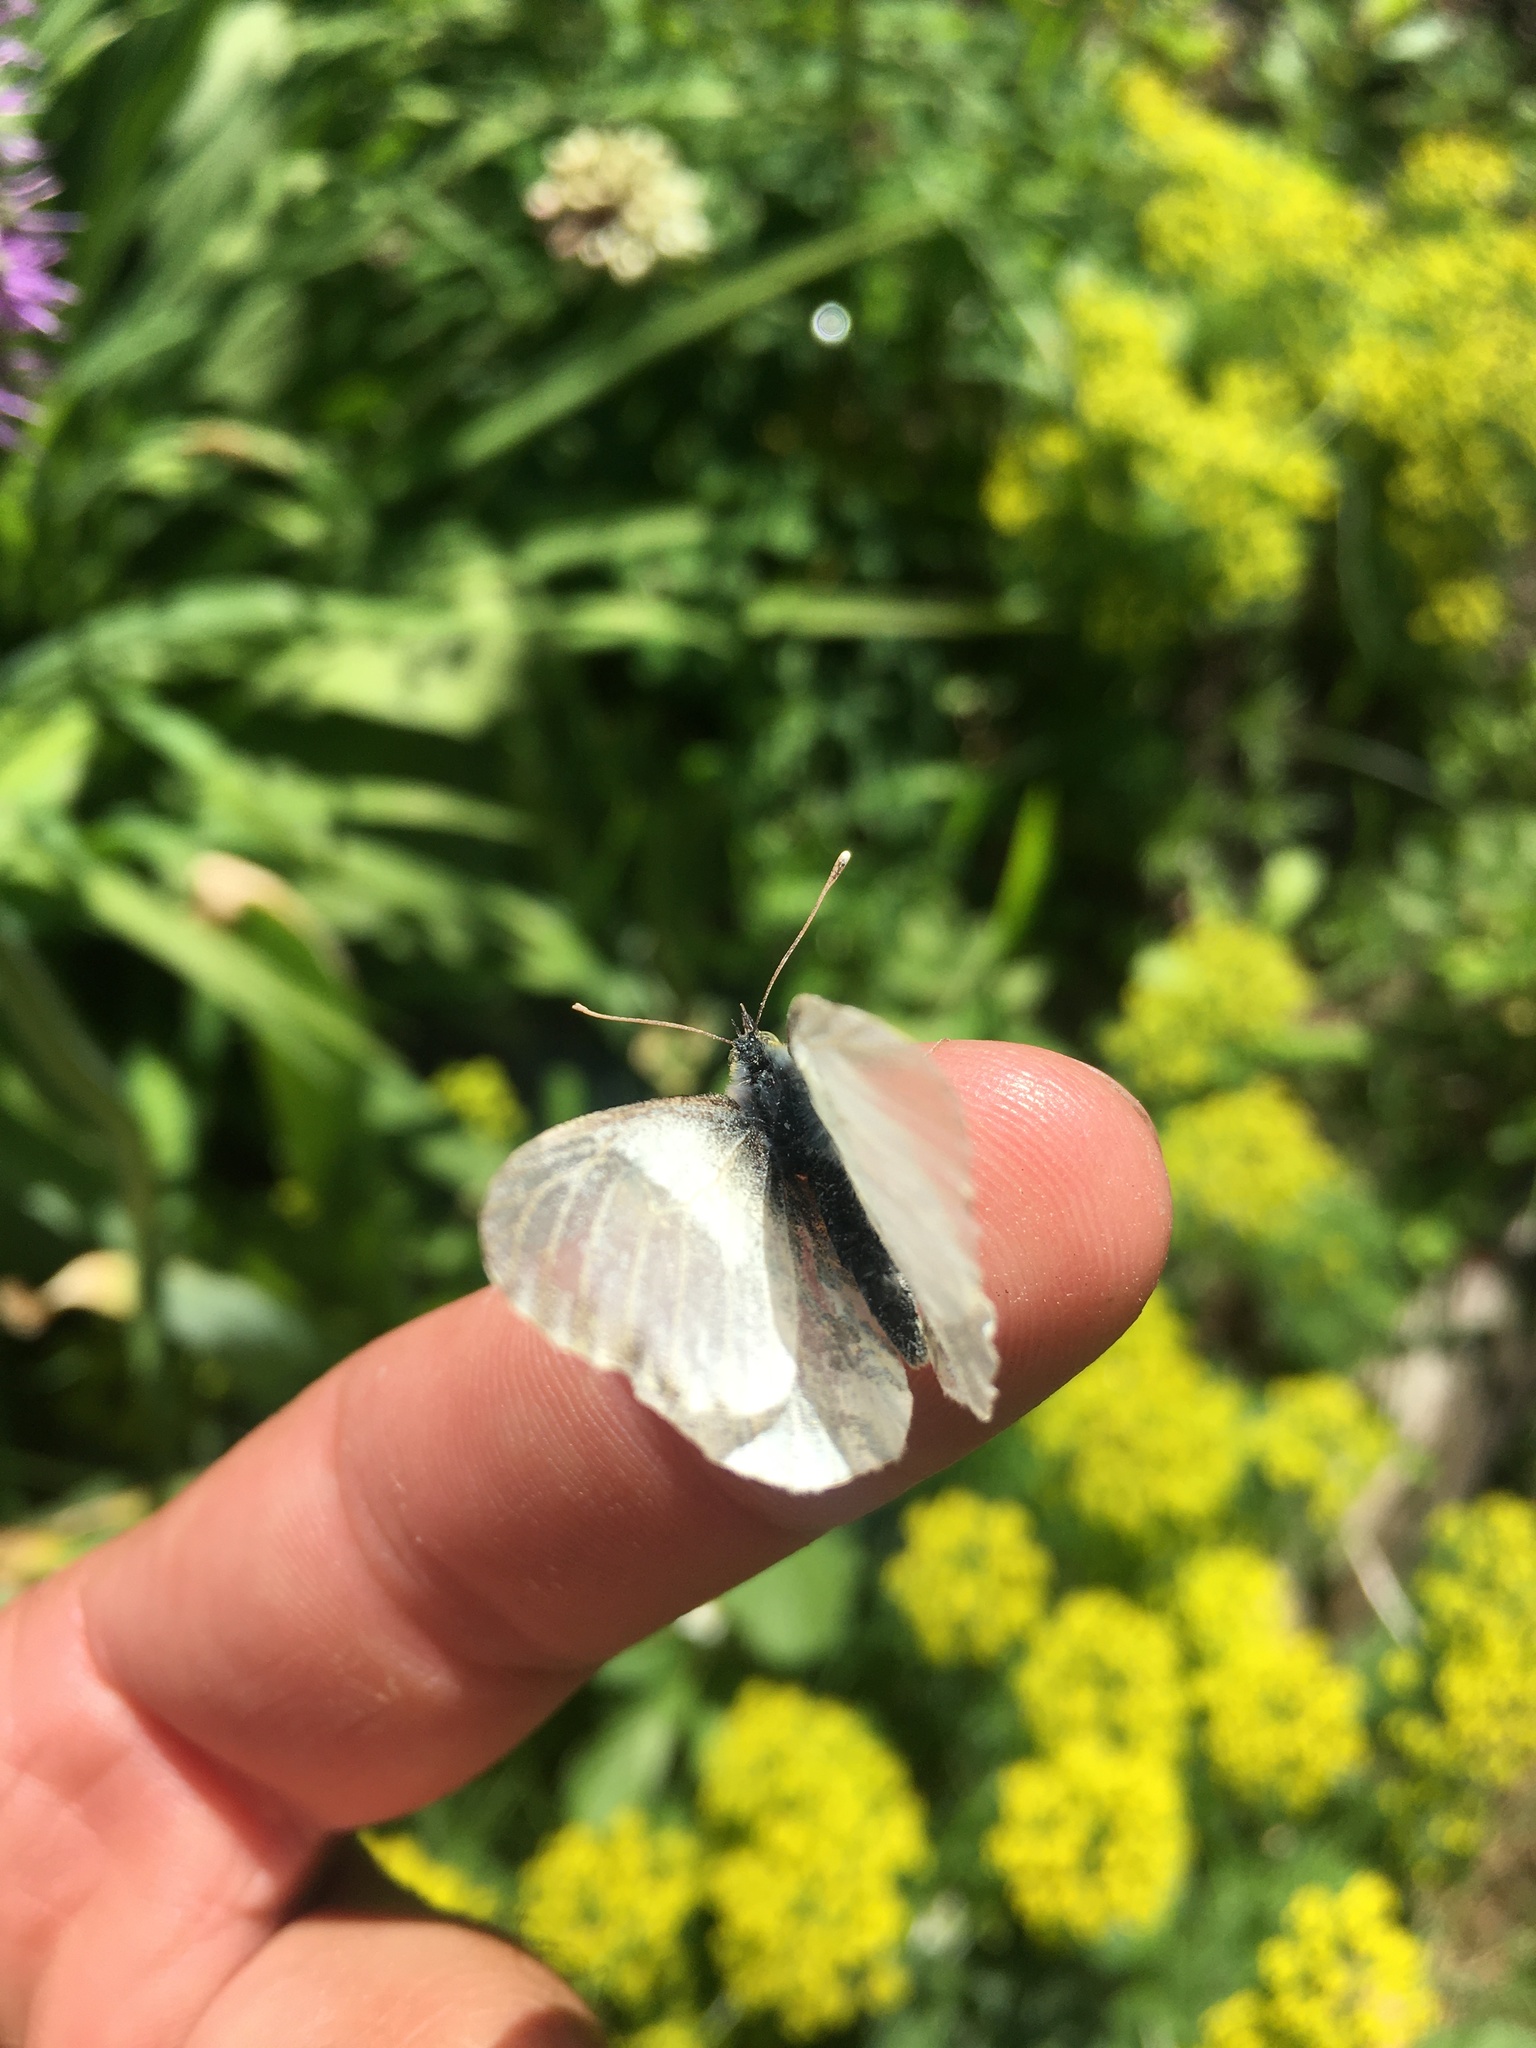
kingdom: Animalia
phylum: Arthropoda
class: Insecta
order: Lepidoptera
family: Pieridae
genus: Anthocharis
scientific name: Anthocharis cardamines
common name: Orange-tip
